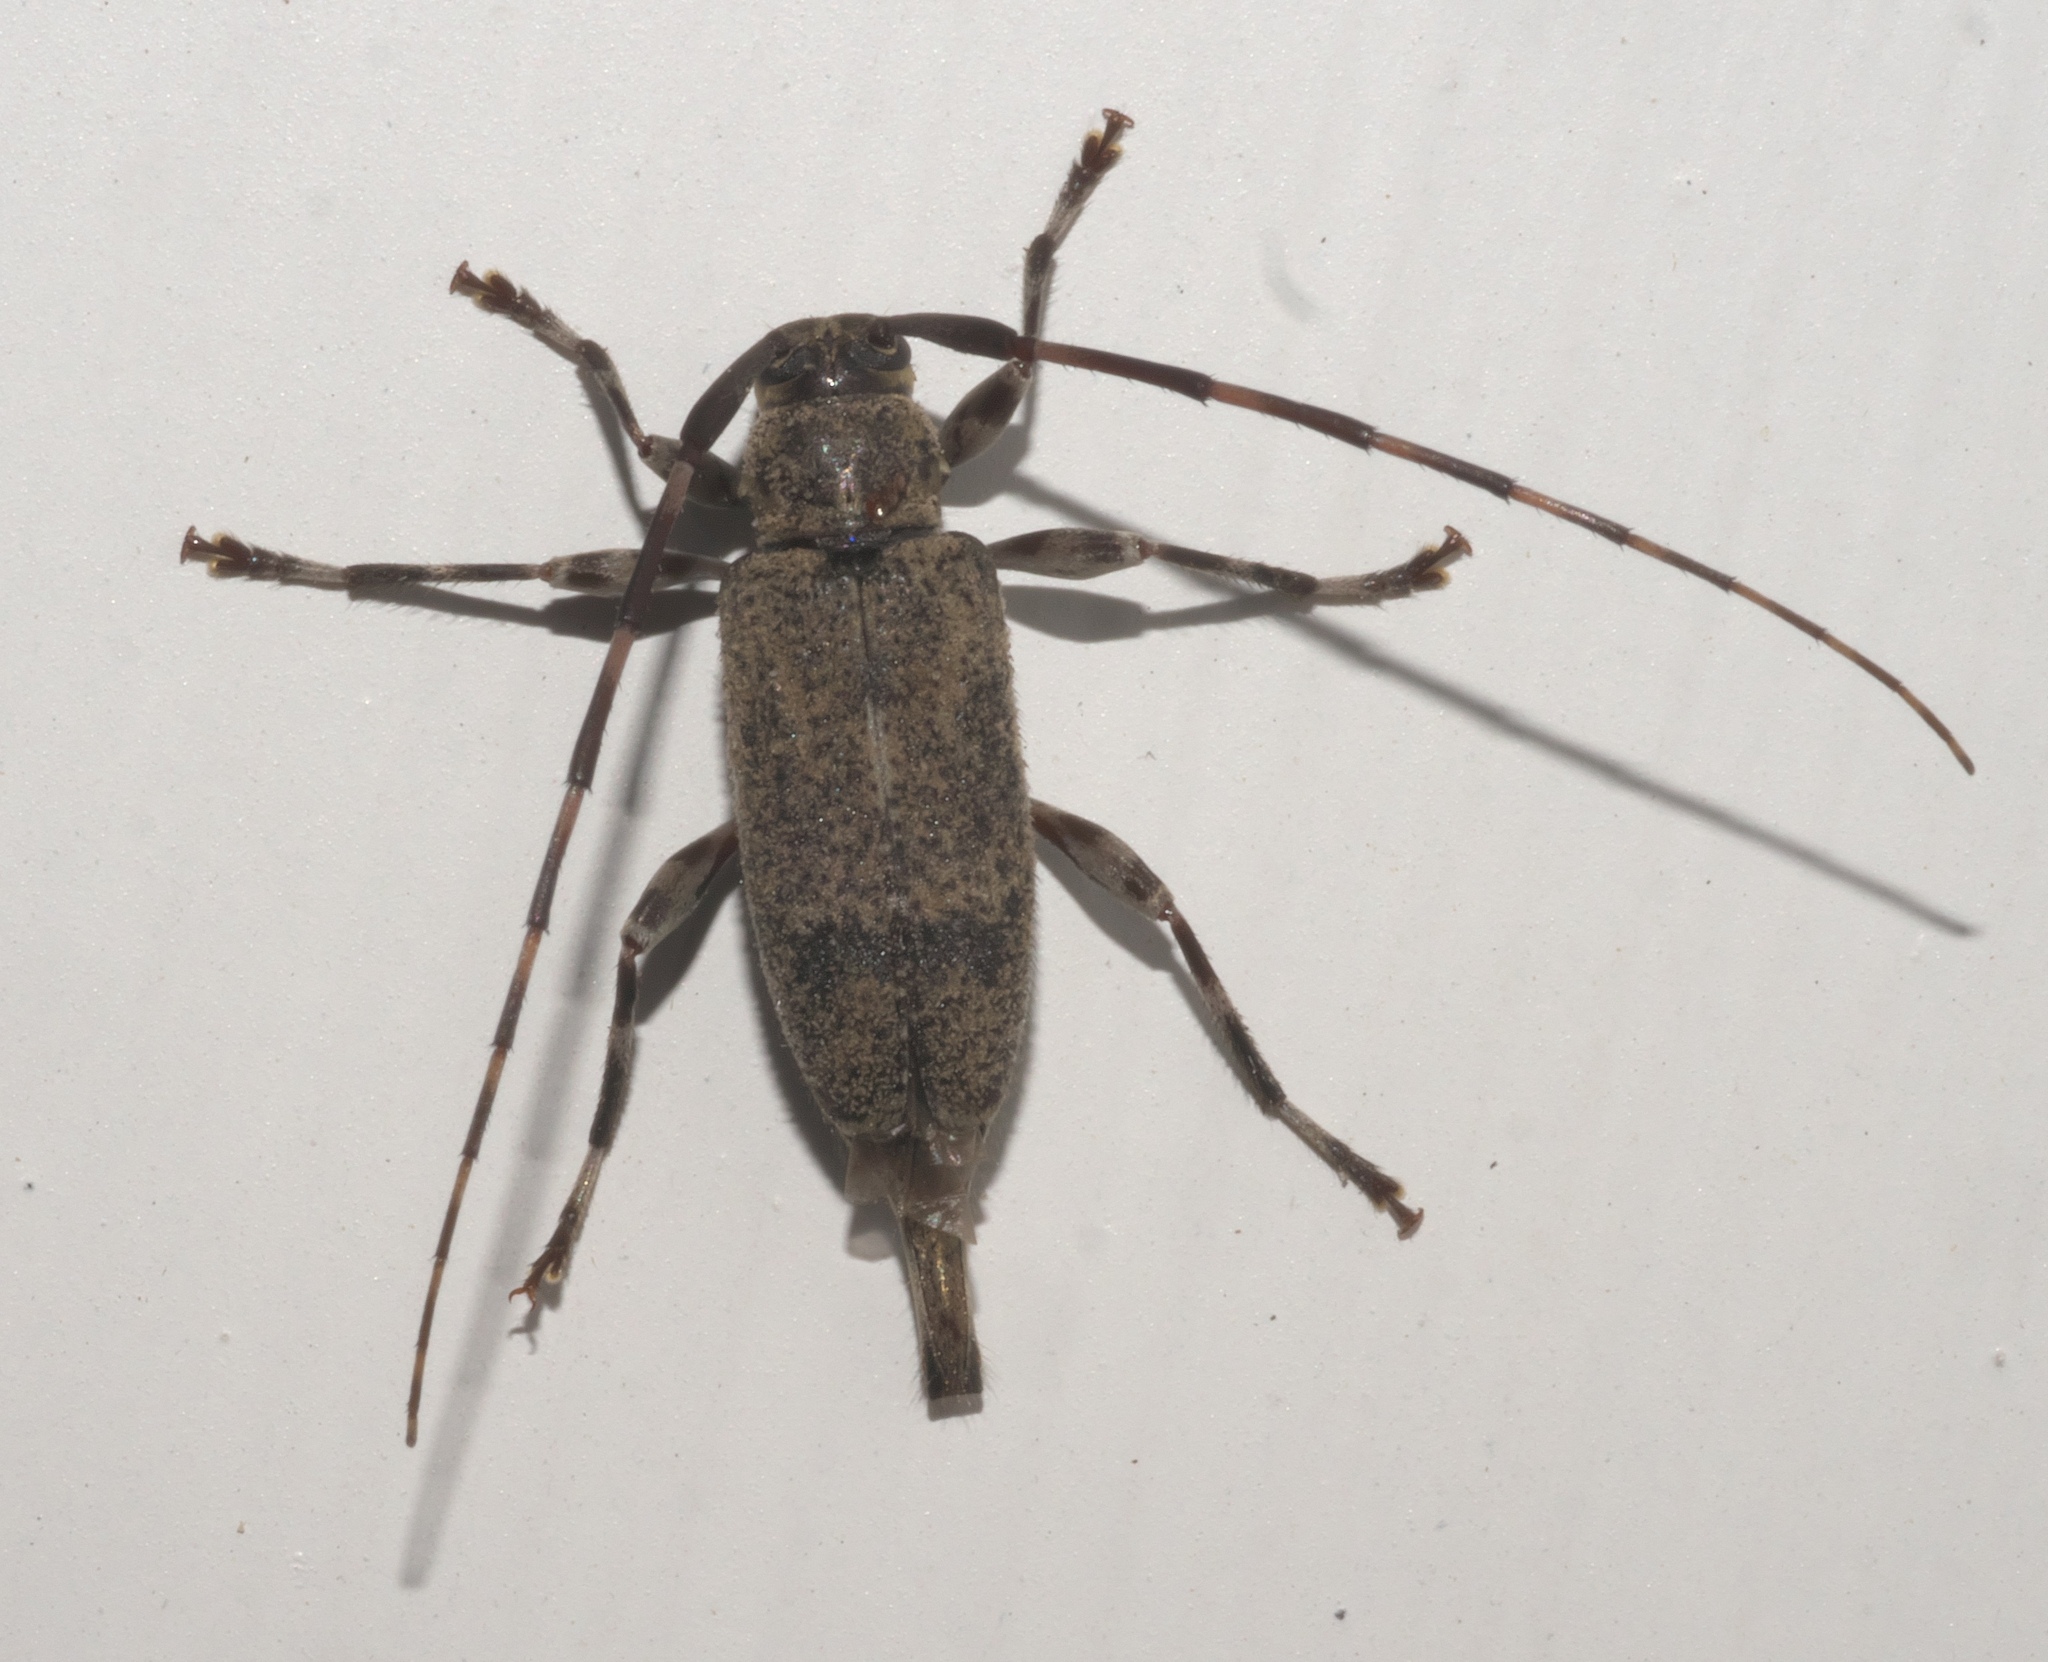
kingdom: Animalia
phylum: Arthropoda
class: Insecta
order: Coleoptera
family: Cerambycidae
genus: Graphisurus
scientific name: Graphisurus despectus
